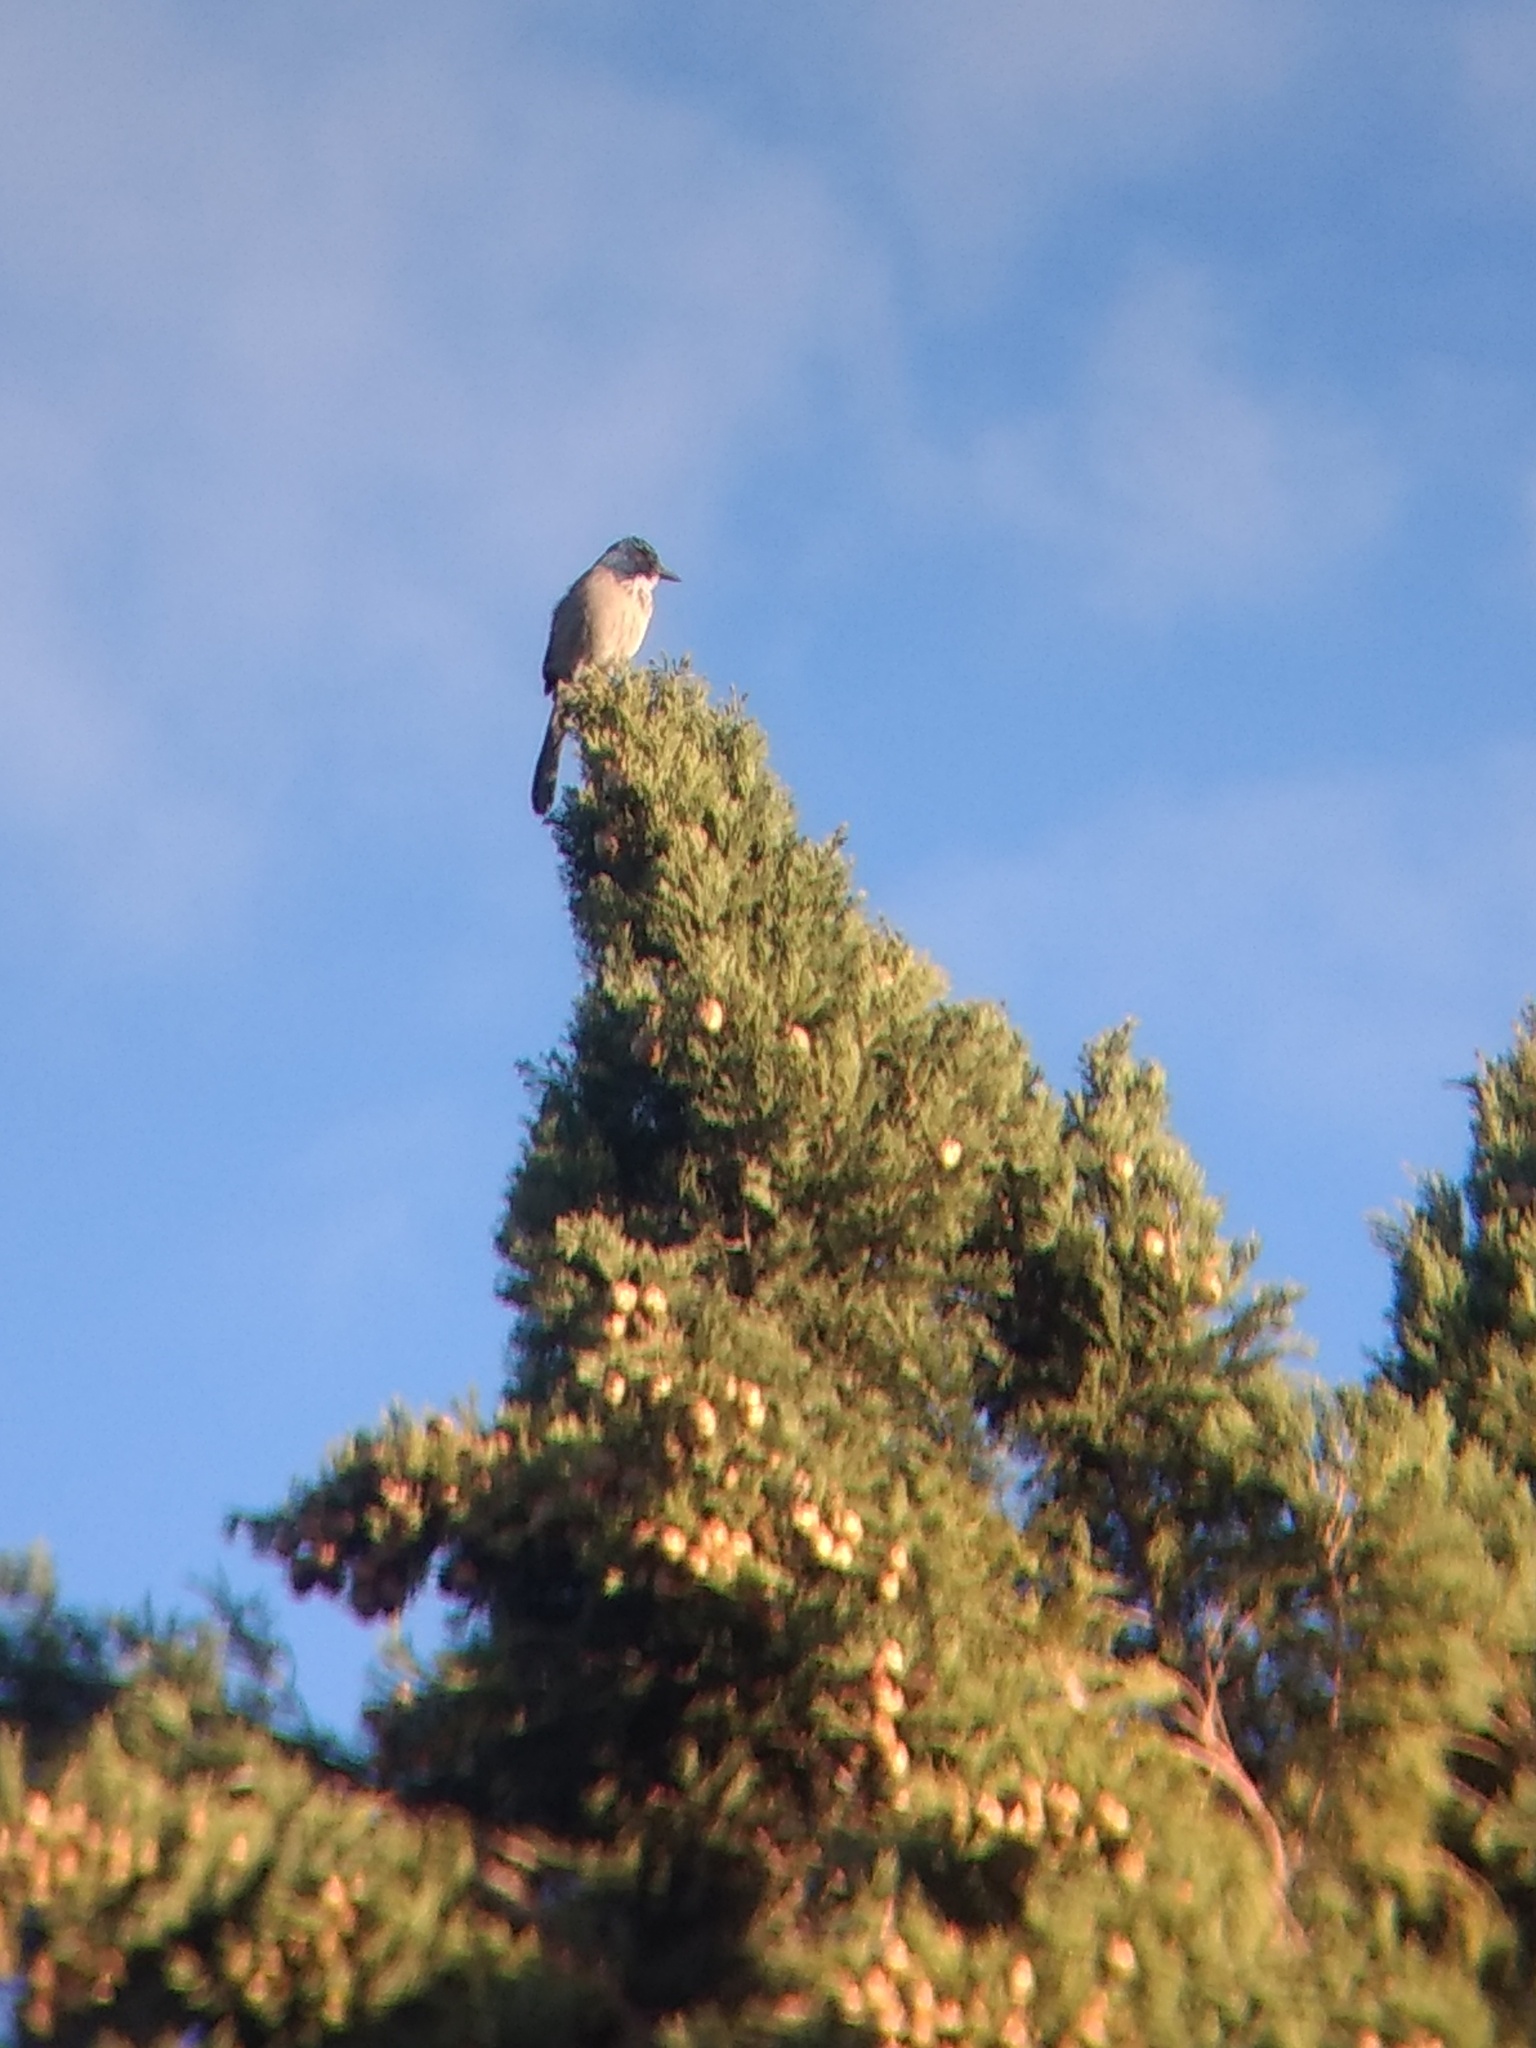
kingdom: Animalia
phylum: Chordata
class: Aves
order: Passeriformes
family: Corvidae
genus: Aphelocoma
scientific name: Aphelocoma californica
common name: California scrub-jay
